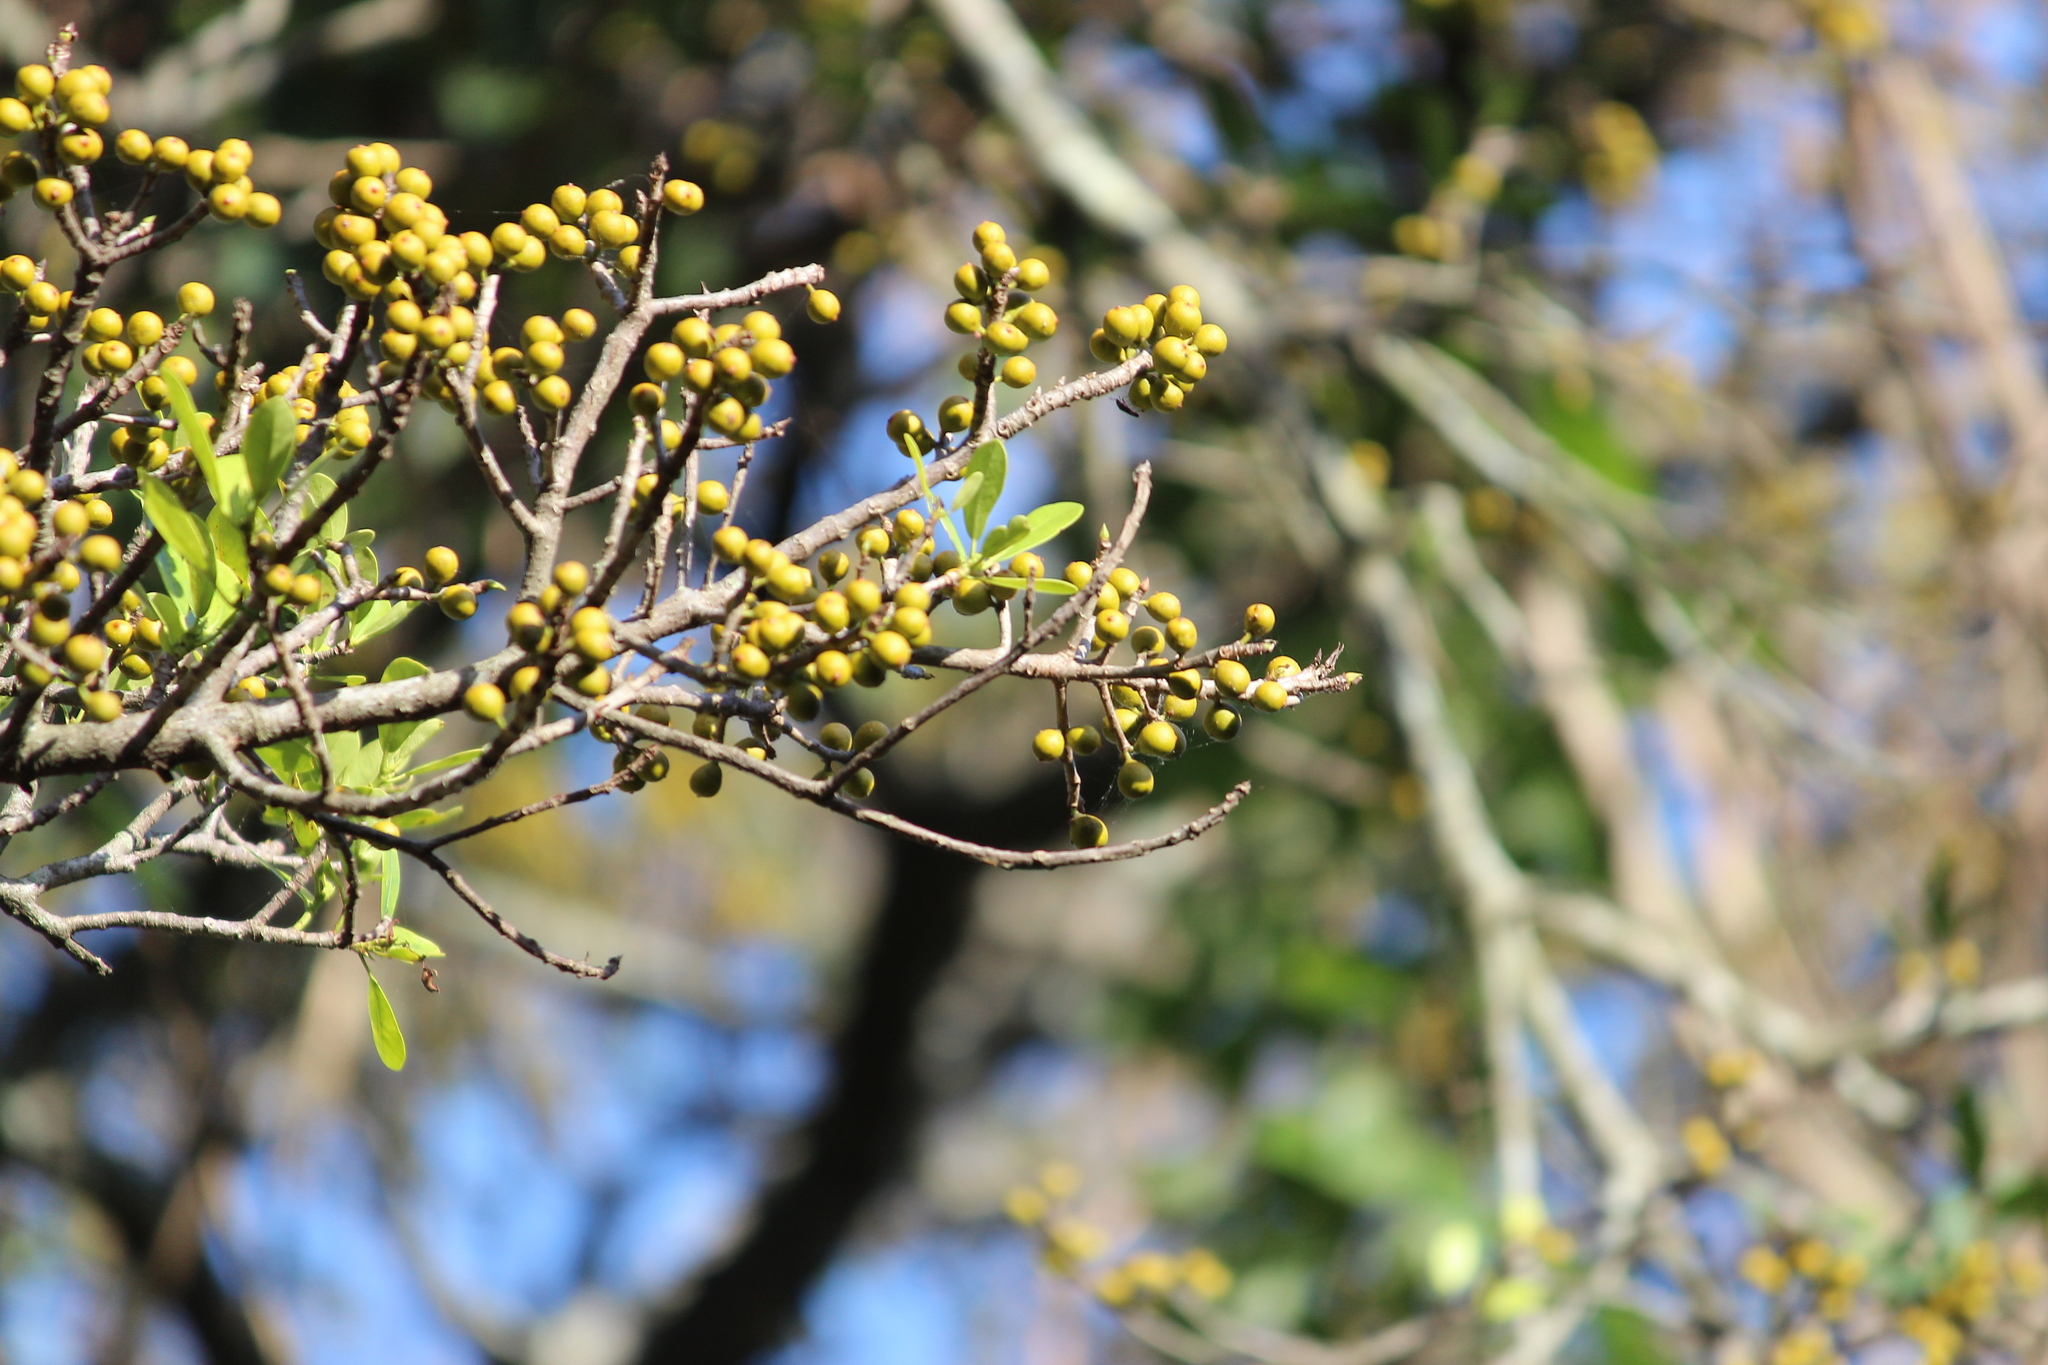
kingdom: Plantae
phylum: Tracheophyta
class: Magnoliopsida
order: Rosales
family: Moraceae
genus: Ficus
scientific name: Ficus natalensis
